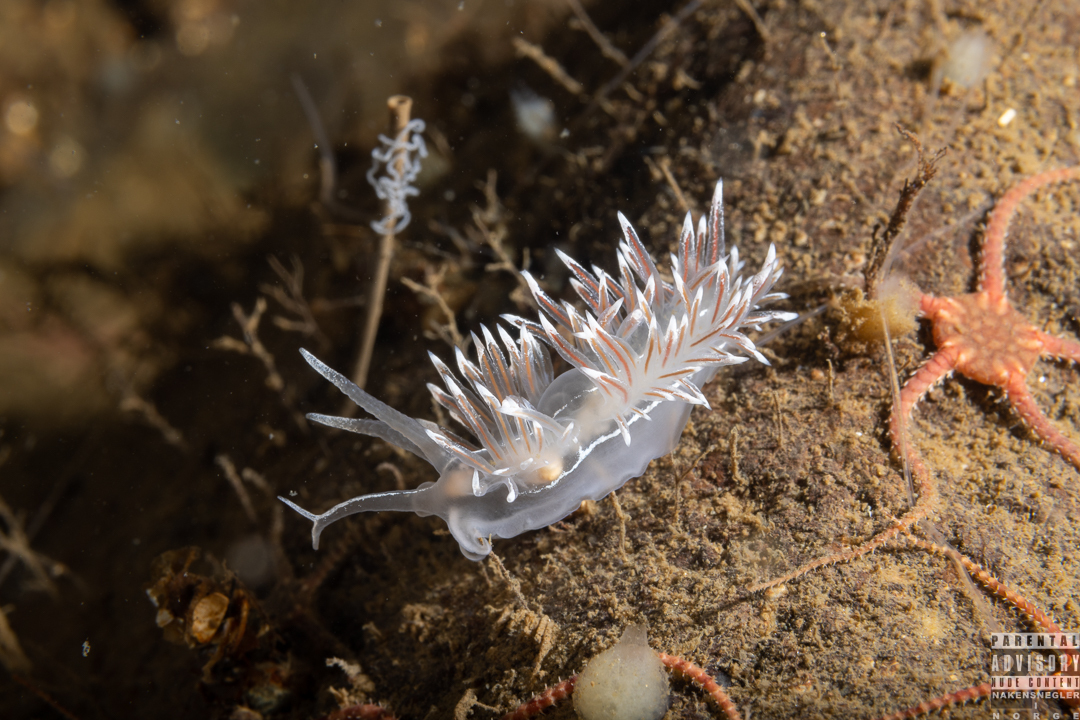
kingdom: Animalia
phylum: Mollusca
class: Gastropoda
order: Nudibranchia
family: Coryphellidae
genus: Coryphella
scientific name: Coryphella lineata
